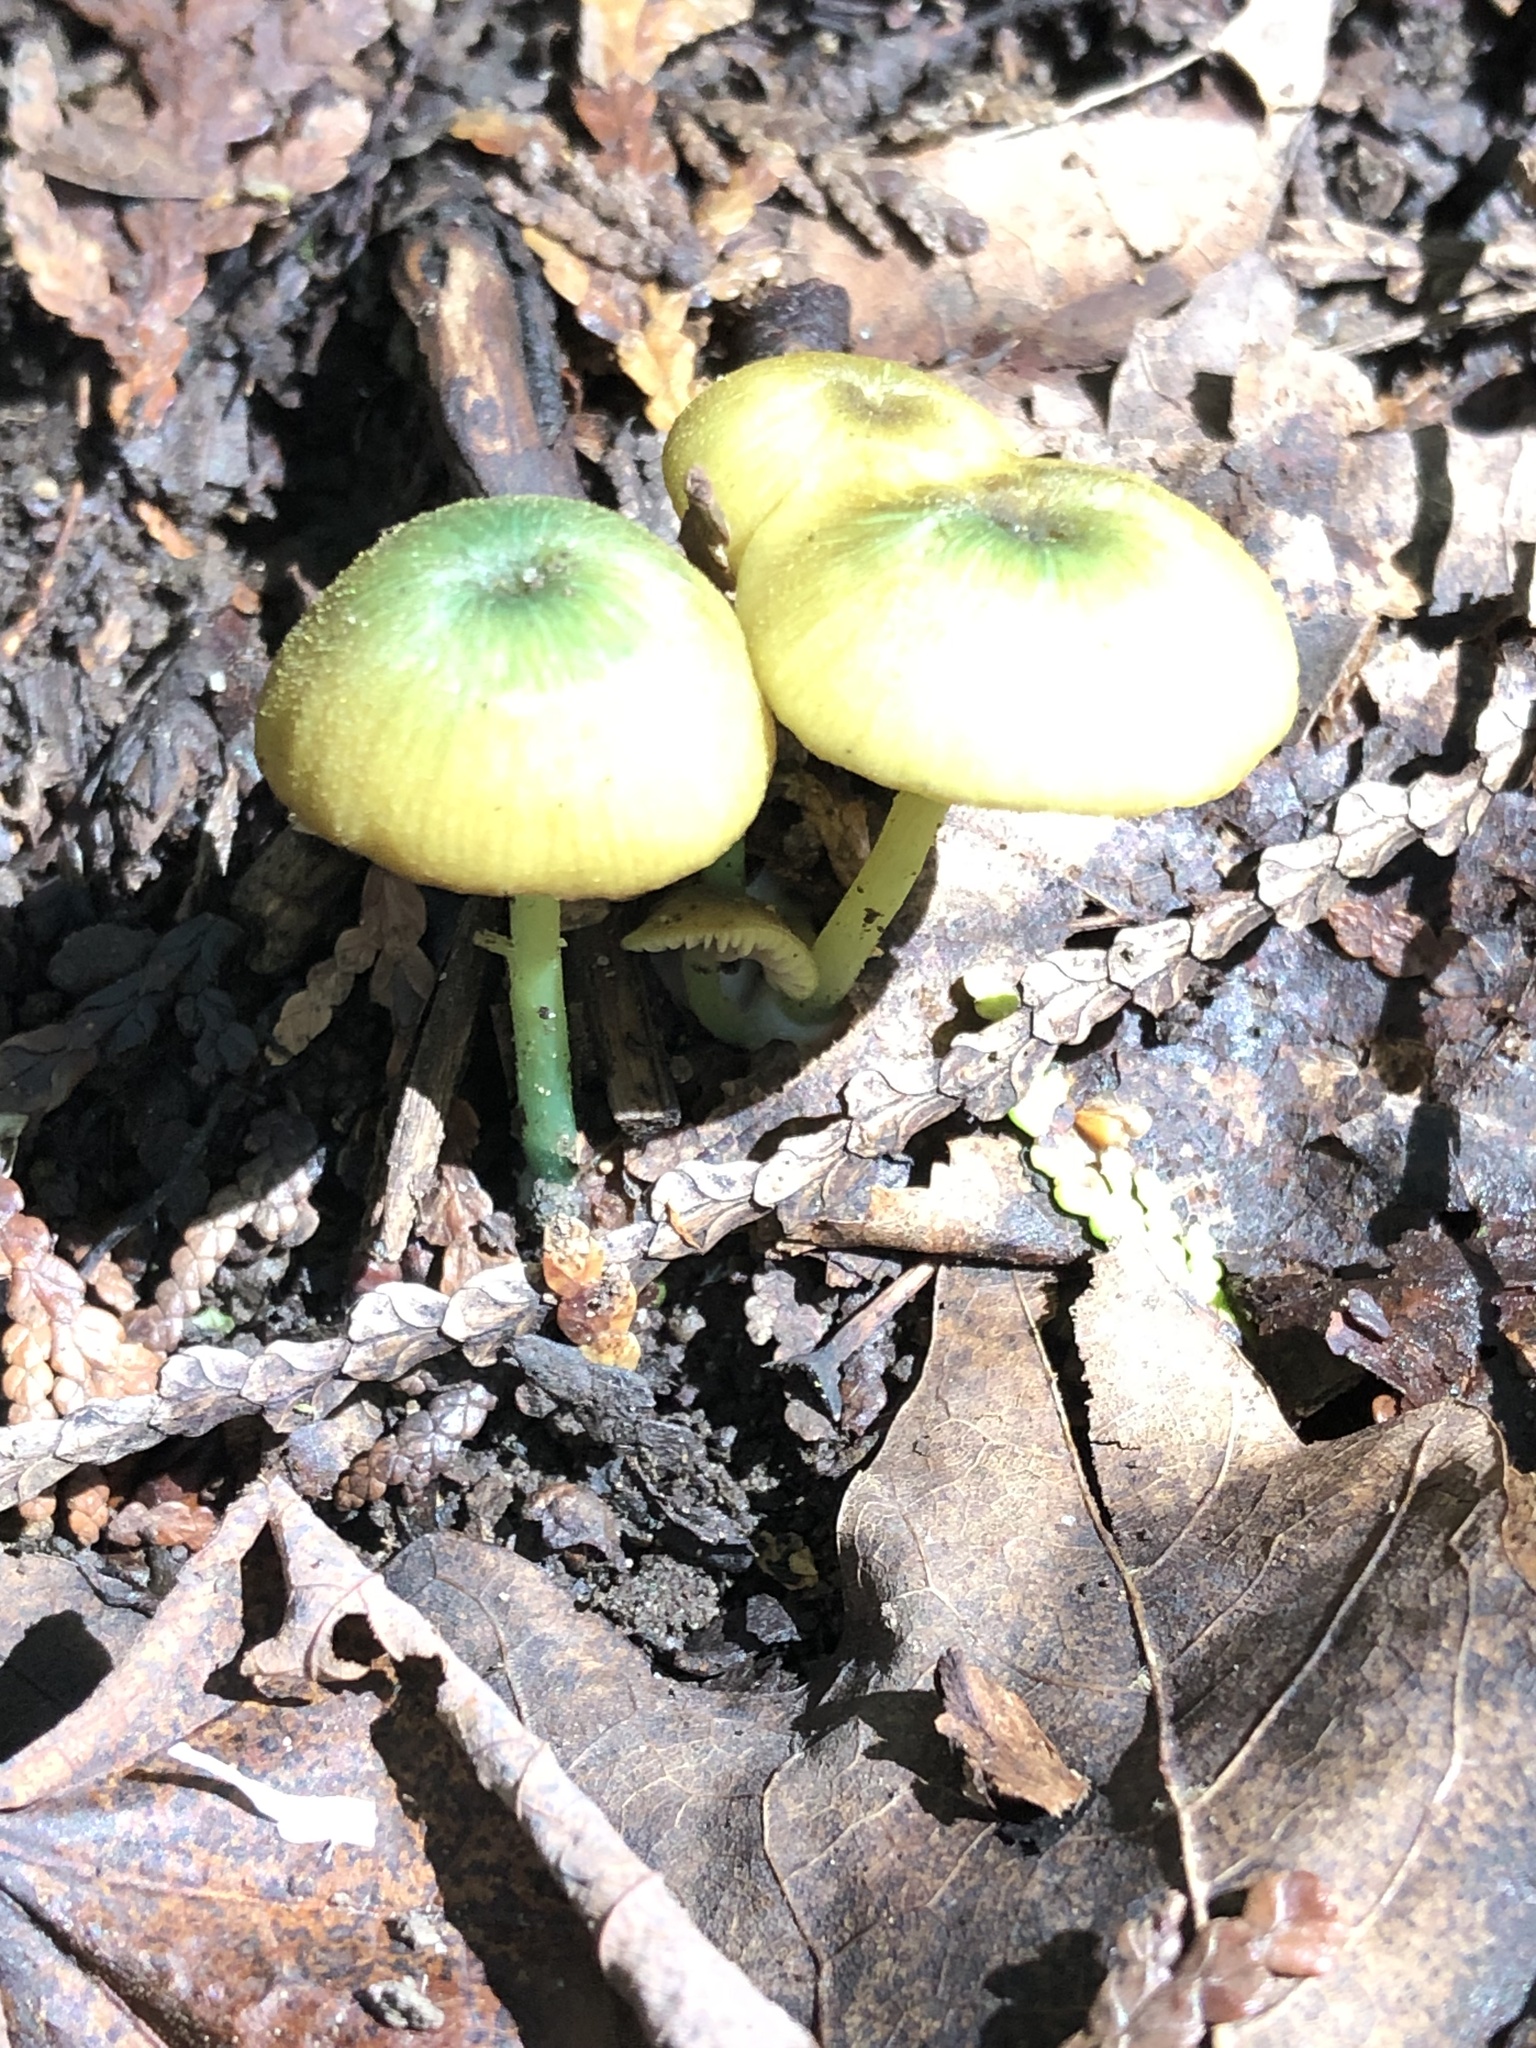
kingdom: Fungi
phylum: Basidiomycota
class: Agaricomycetes
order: Agaricales
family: Entolomataceae
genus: Entoloma
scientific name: Entoloma incanum
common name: Mousepee pinkgill
